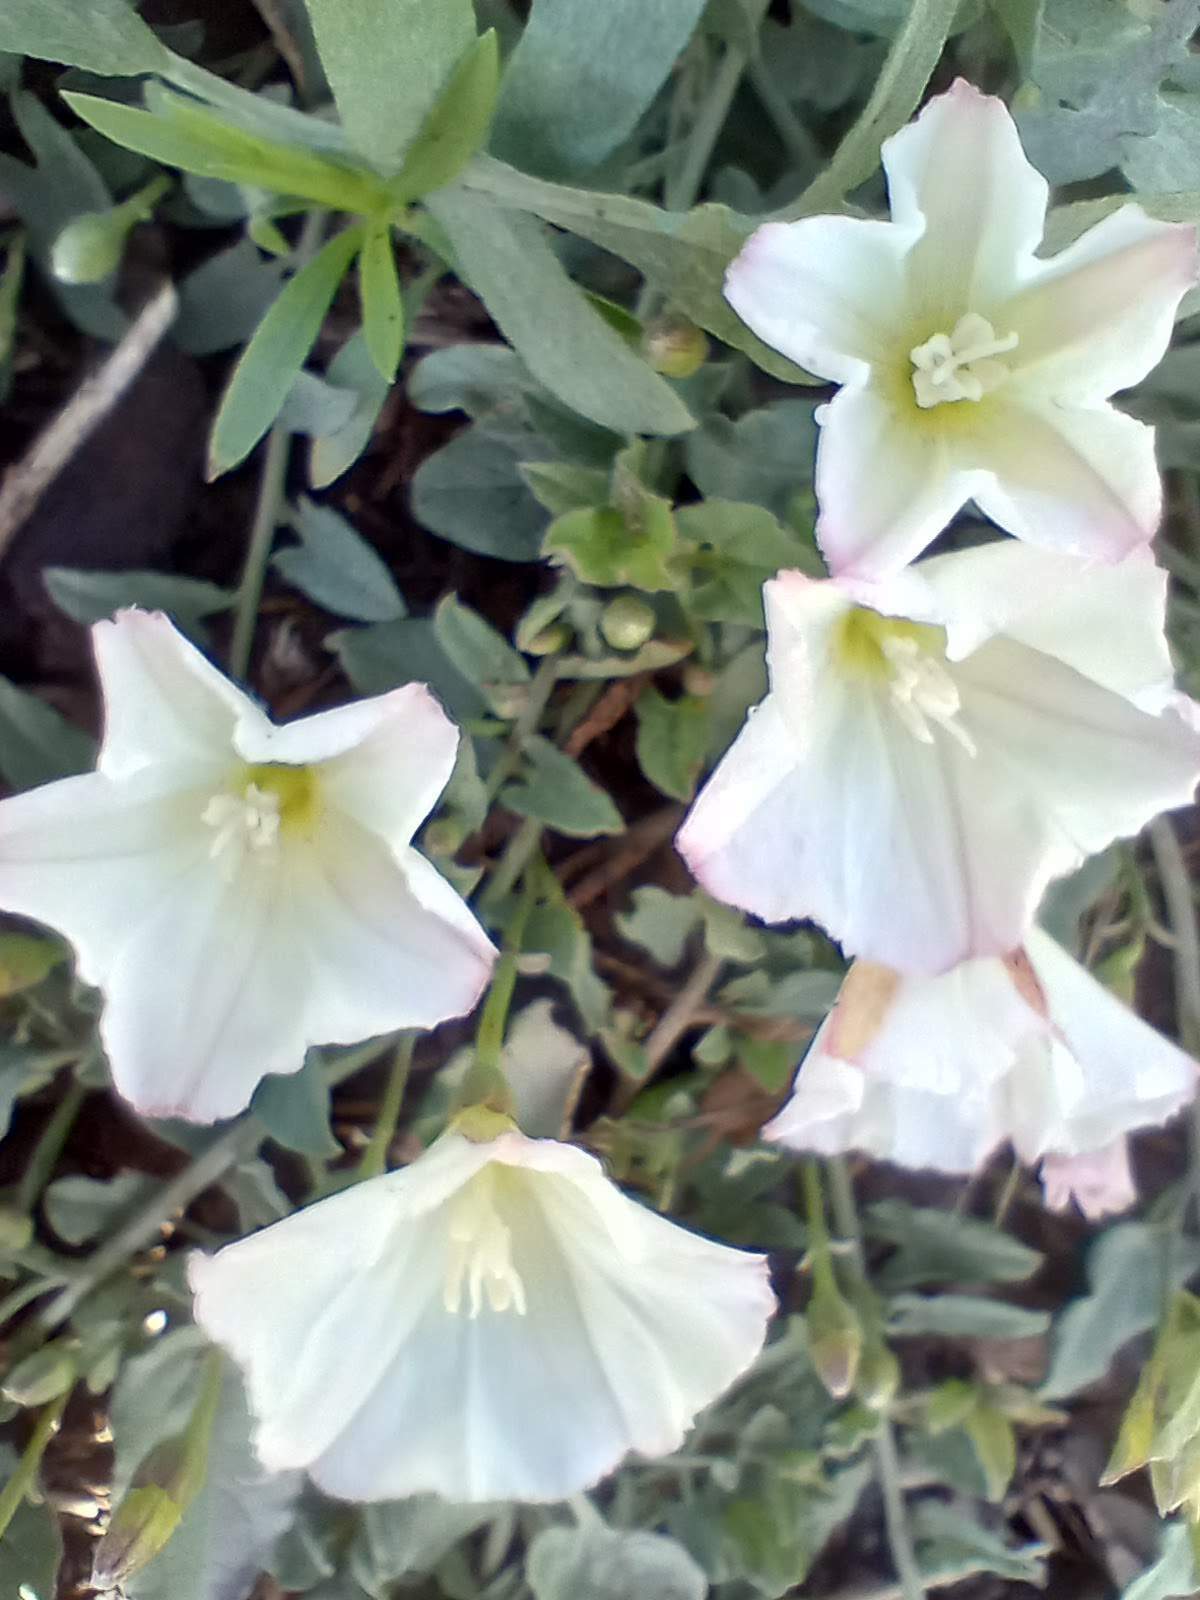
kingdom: Plantae
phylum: Tracheophyta
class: Magnoliopsida
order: Solanales
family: Convolvulaceae
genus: Convolvulus
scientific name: Convolvulus arvensis
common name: Field bindweed
